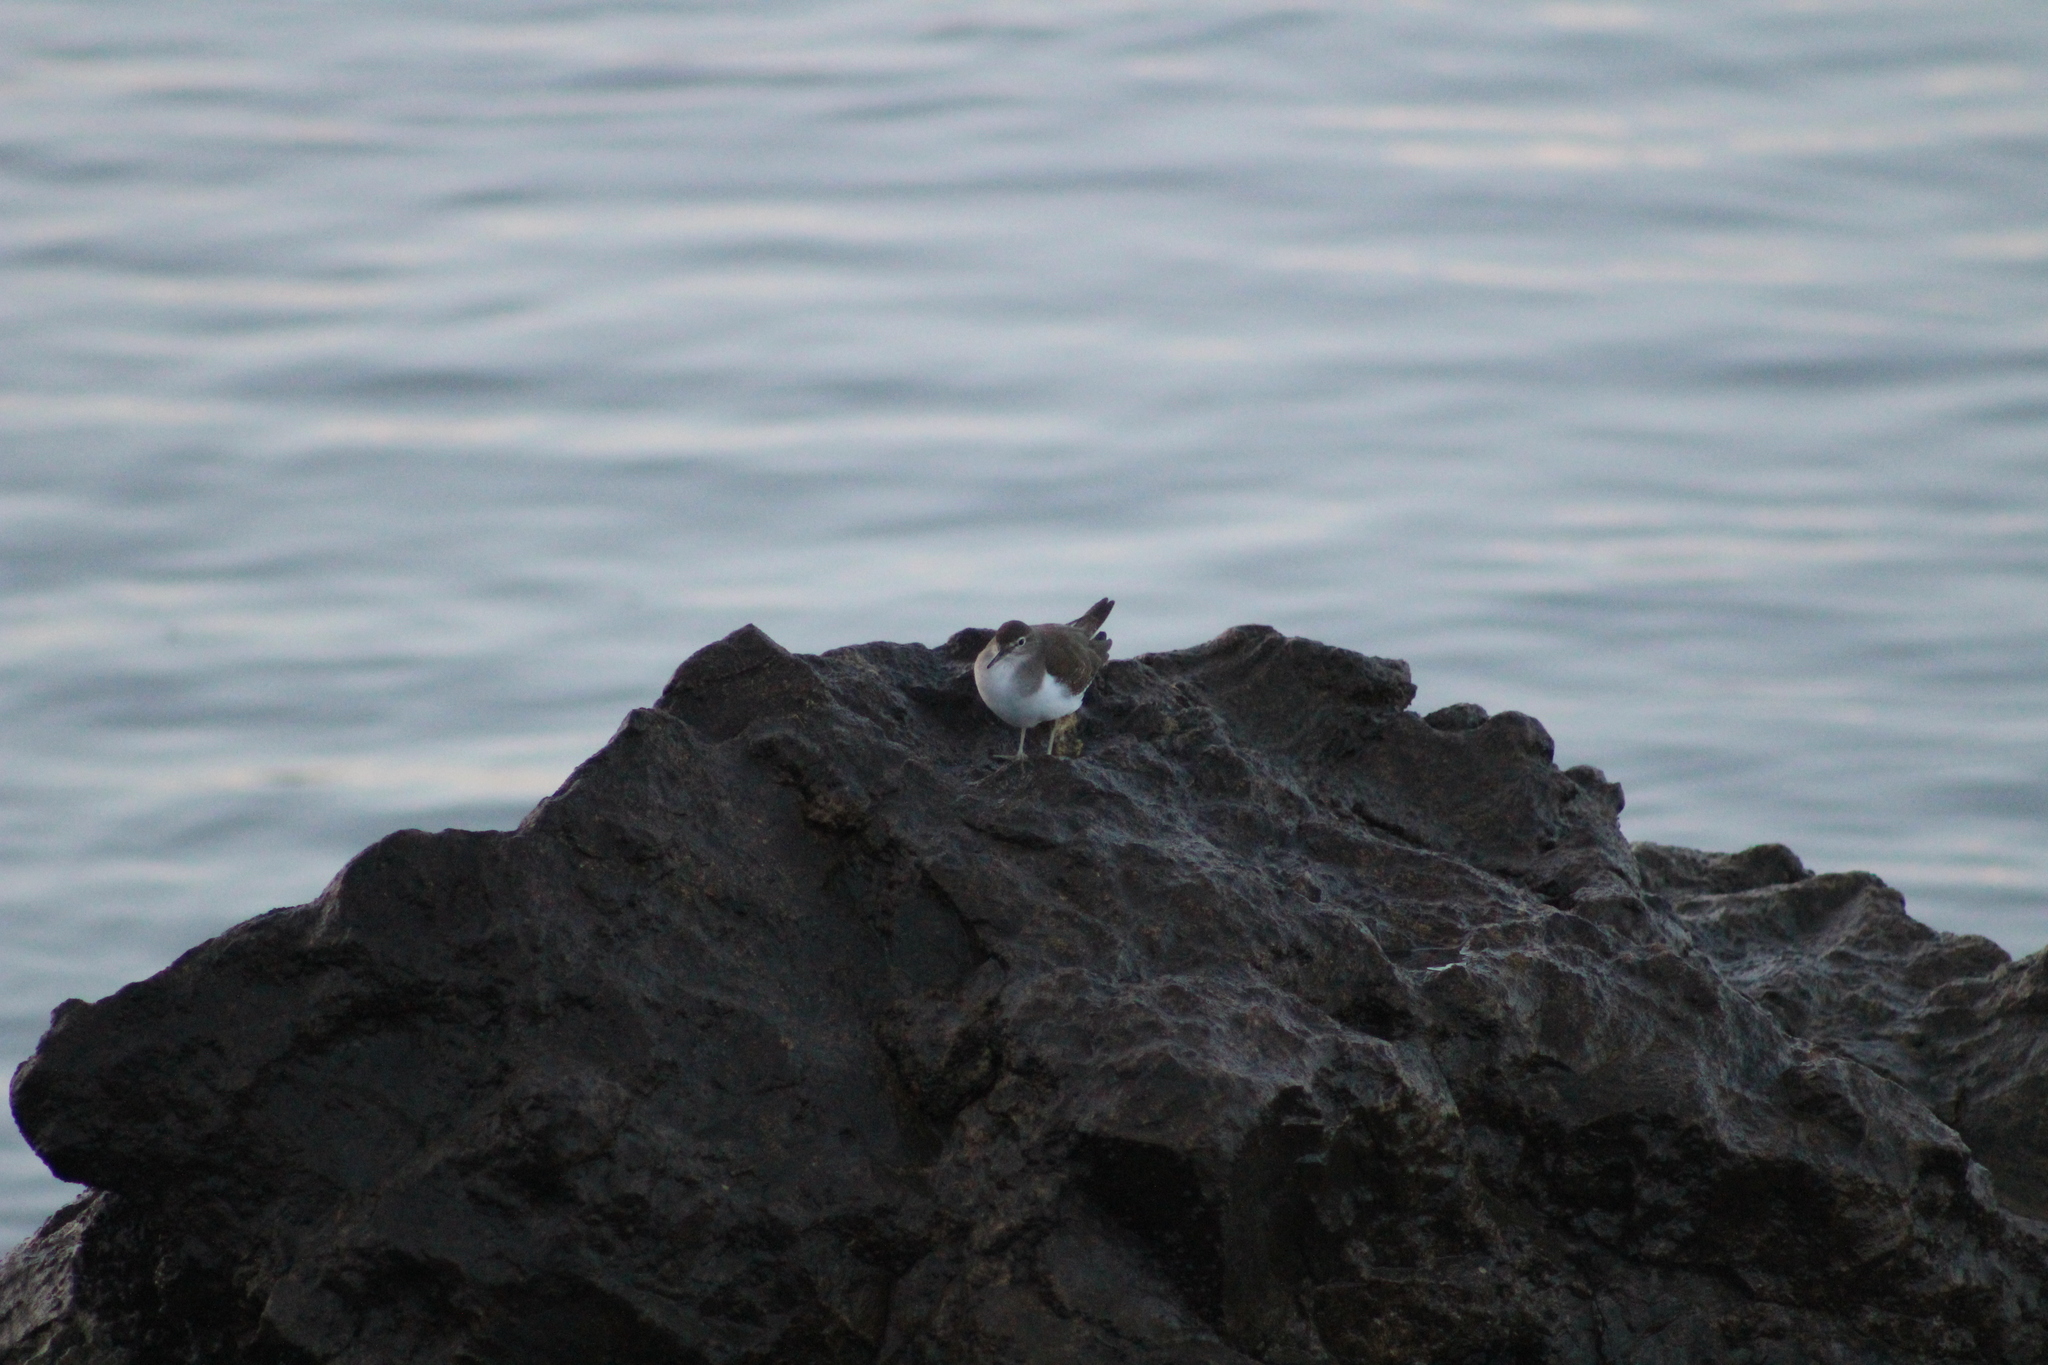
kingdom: Animalia
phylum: Chordata
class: Aves
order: Charadriiformes
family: Scolopacidae
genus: Actitis
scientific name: Actitis hypoleucos
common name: Common sandpiper
